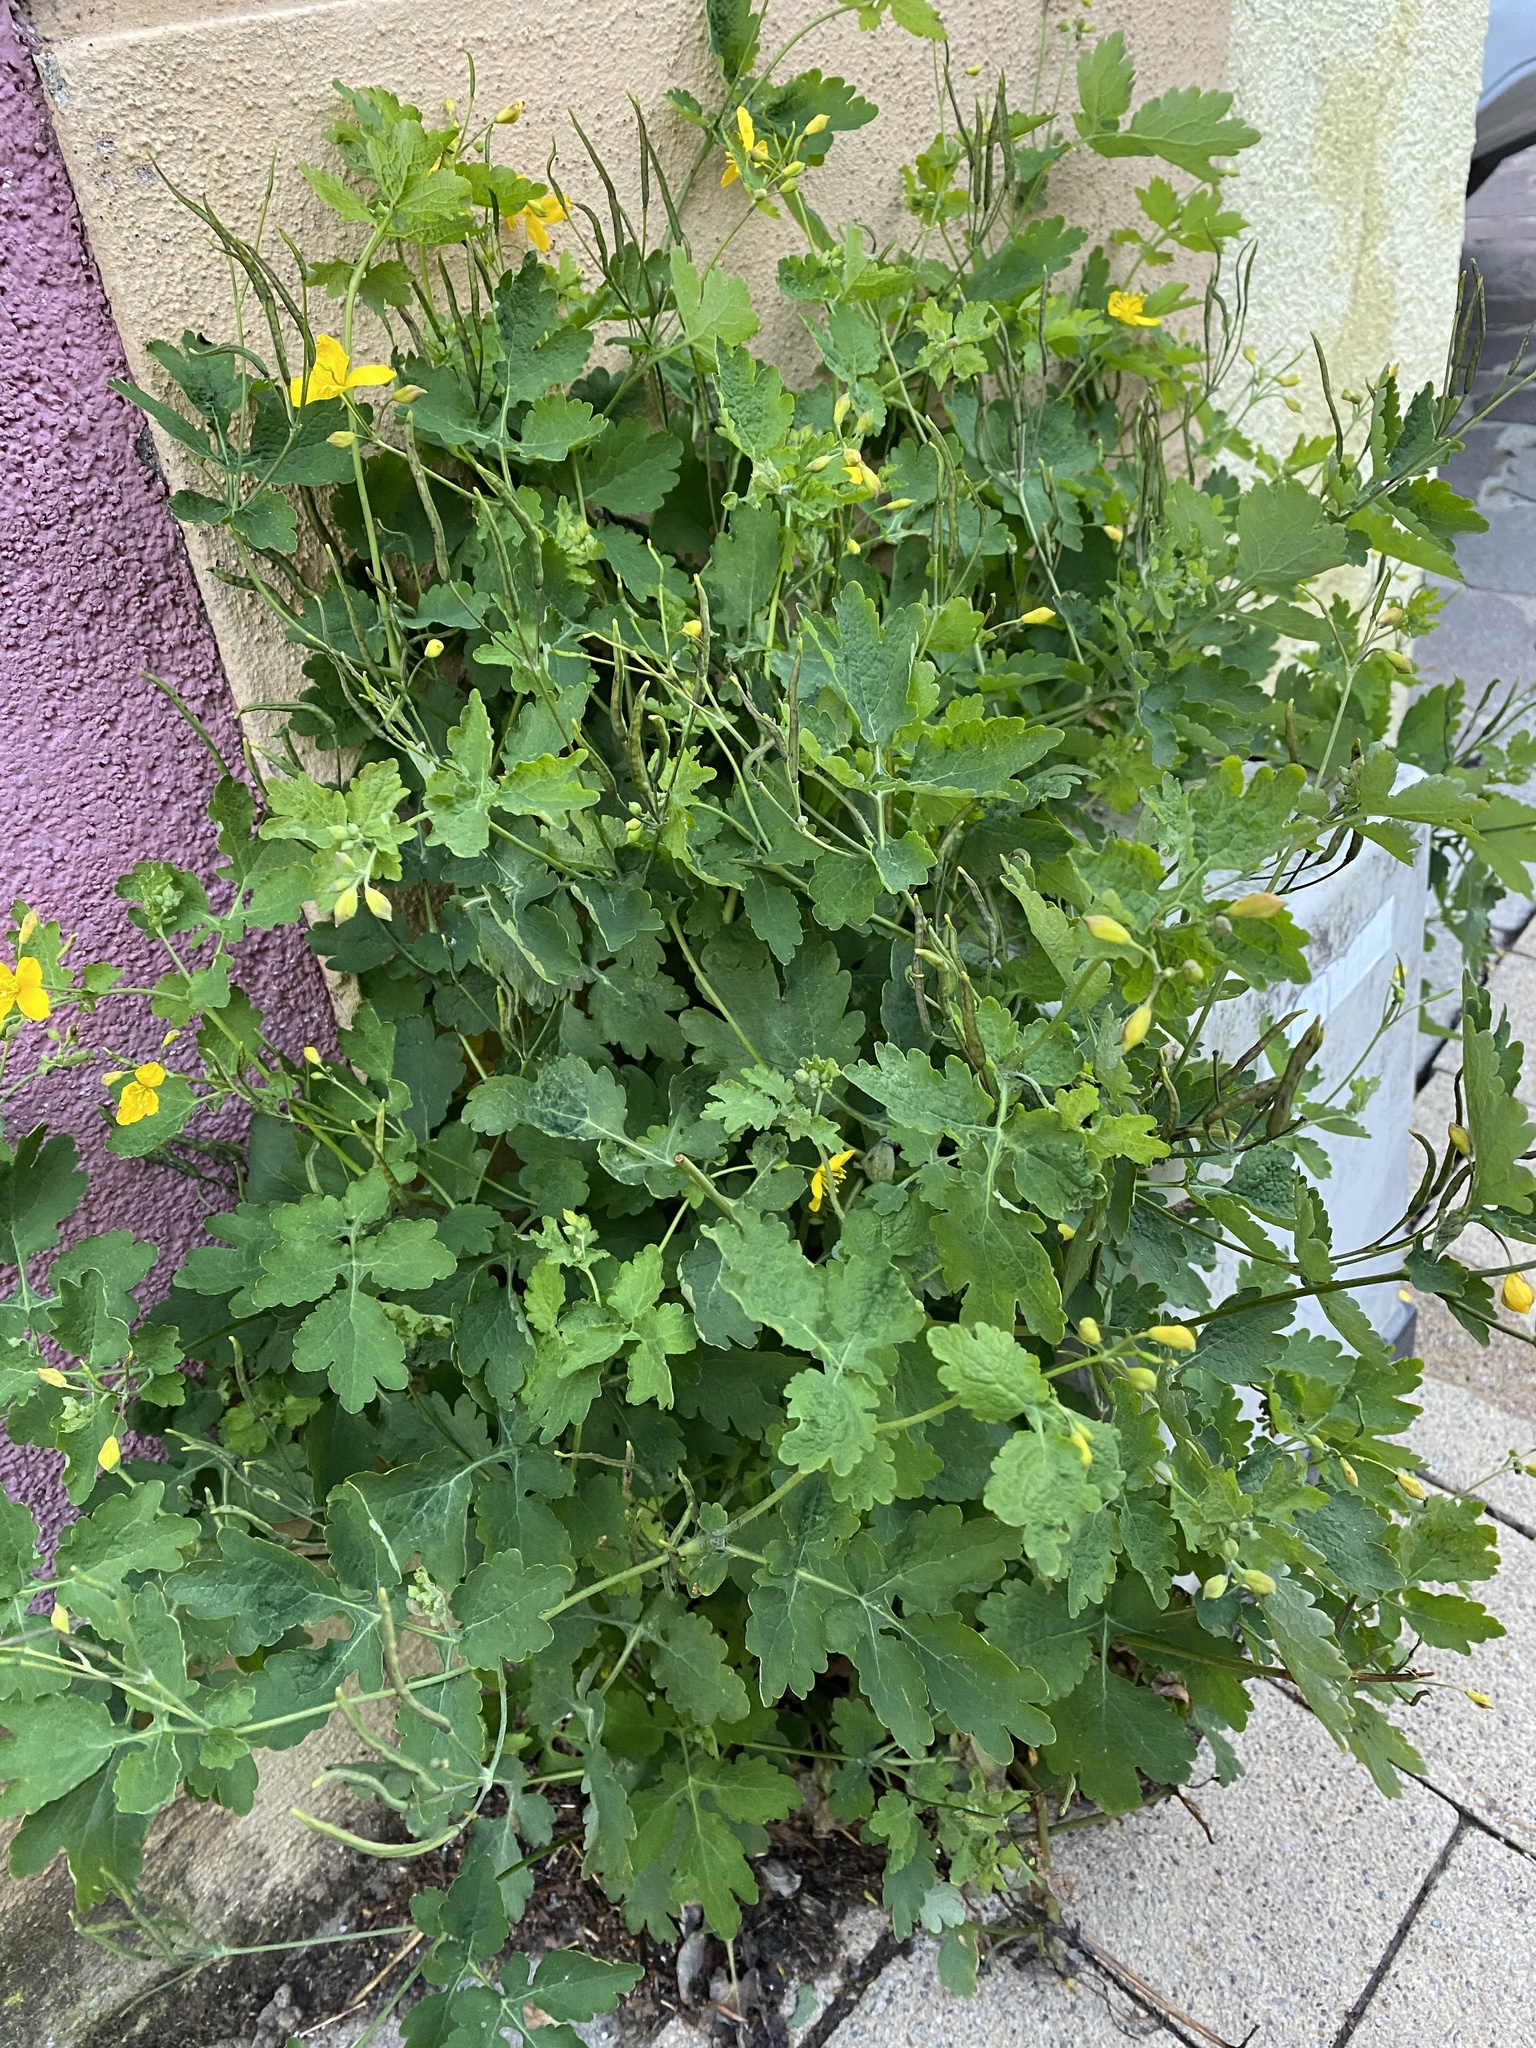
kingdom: Plantae
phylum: Tracheophyta
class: Magnoliopsida
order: Ranunculales
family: Papaveraceae
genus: Chelidonium
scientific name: Chelidonium majus
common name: Greater celandine
